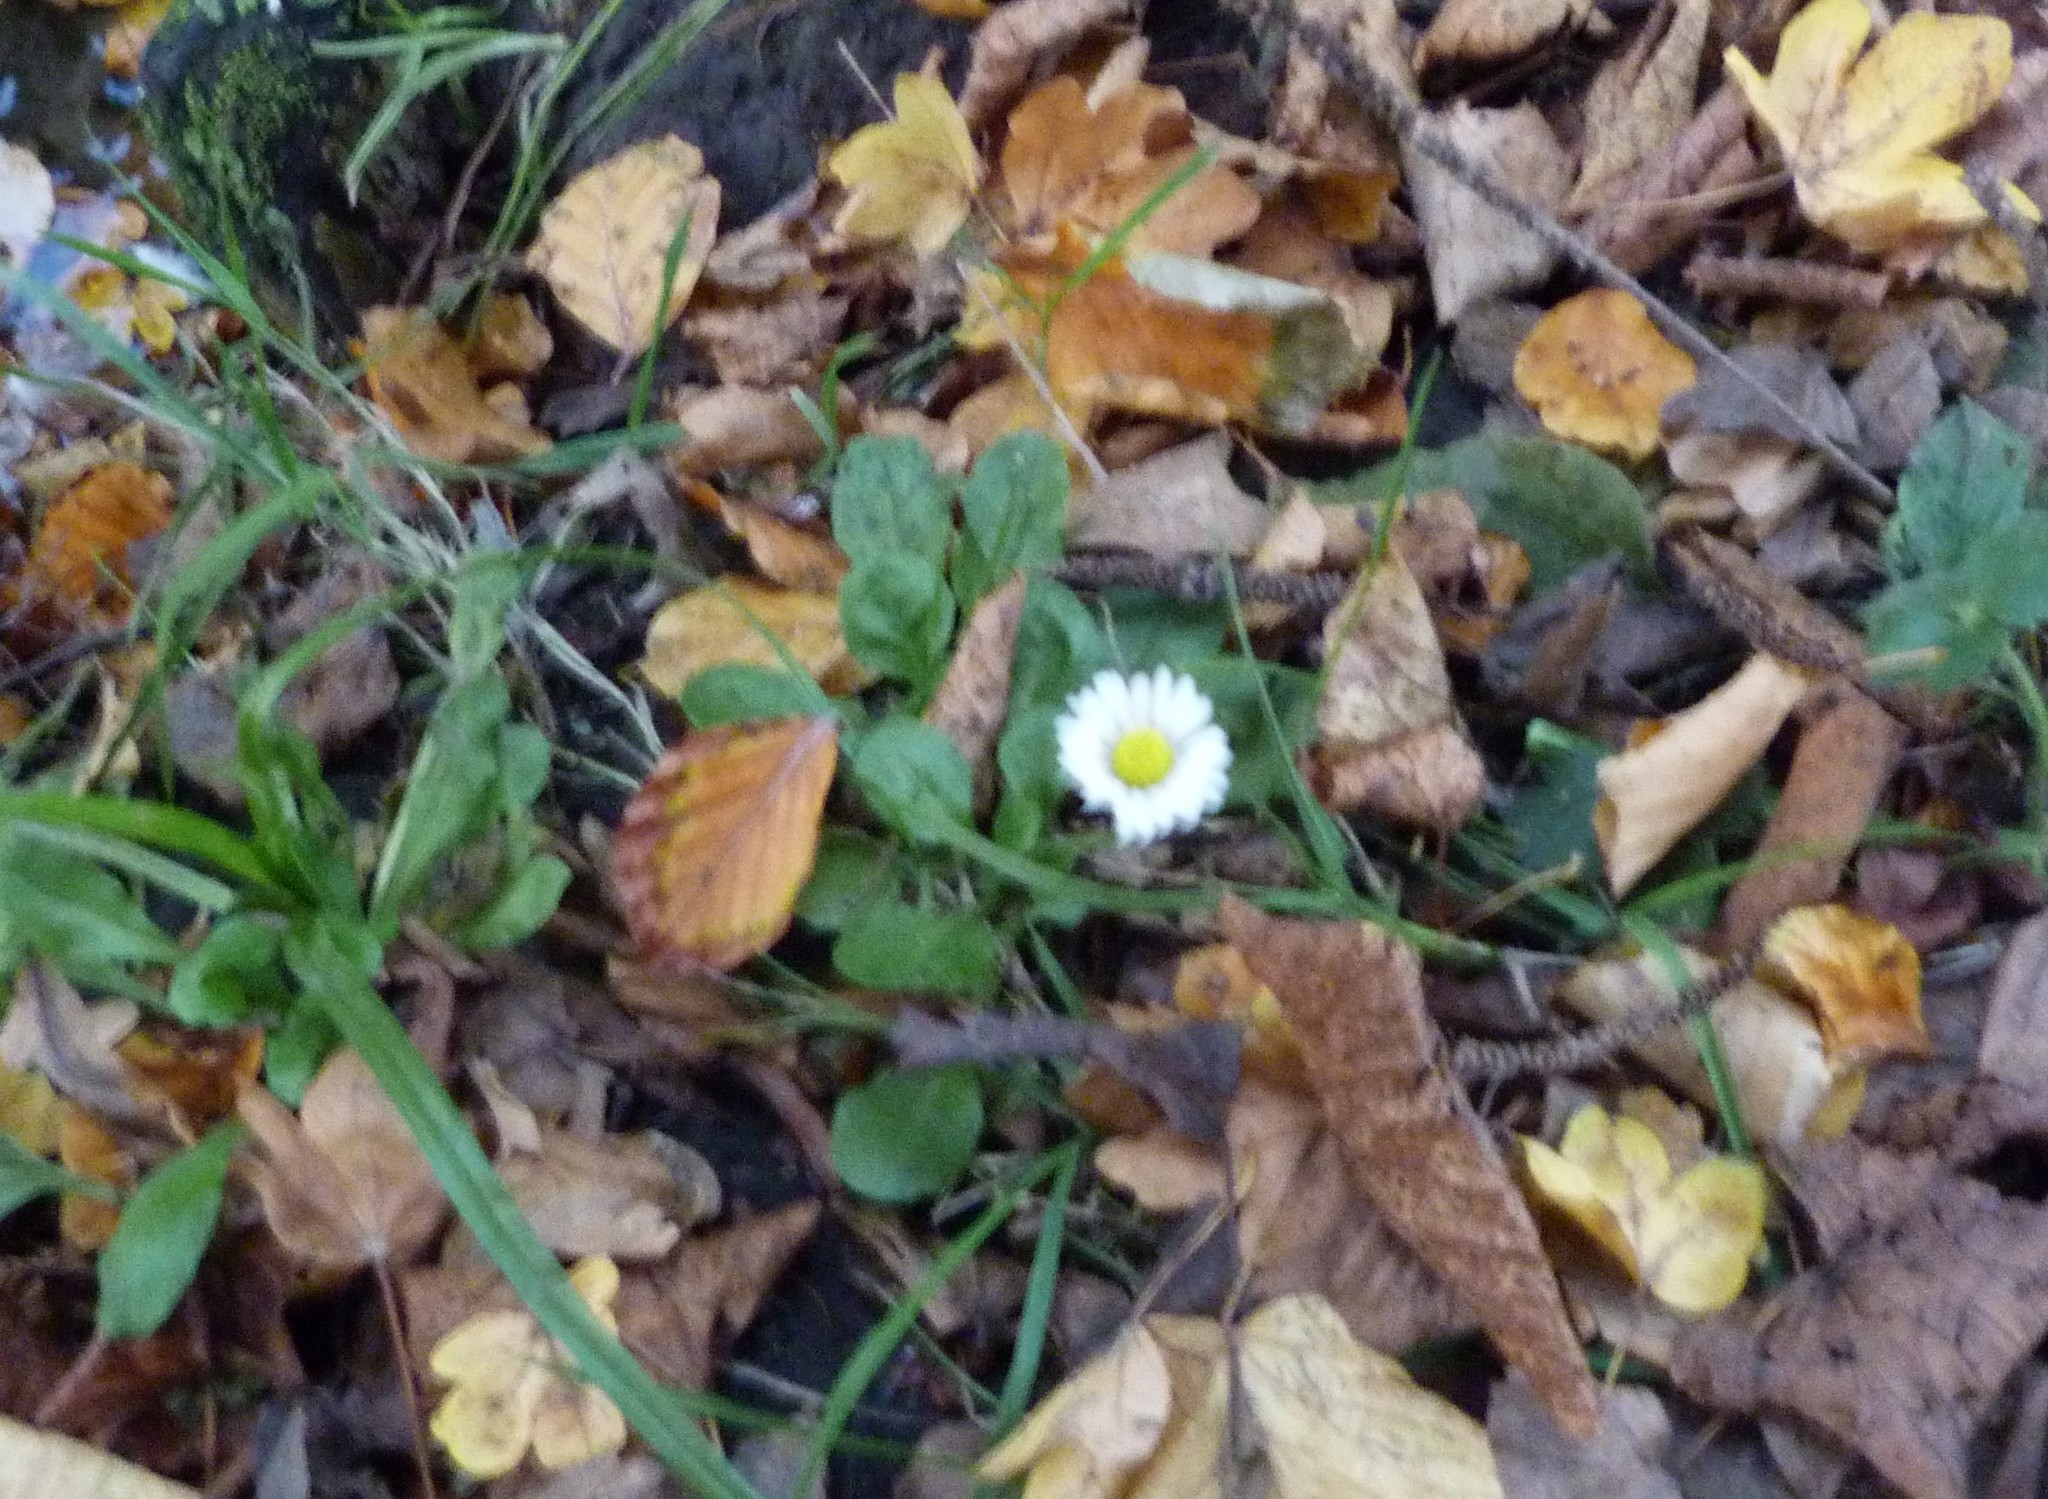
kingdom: Plantae
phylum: Tracheophyta
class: Magnoliopsida
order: Asterales
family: Asteraceae
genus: Bellis
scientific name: Bellis perennis
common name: Lawndaisy
